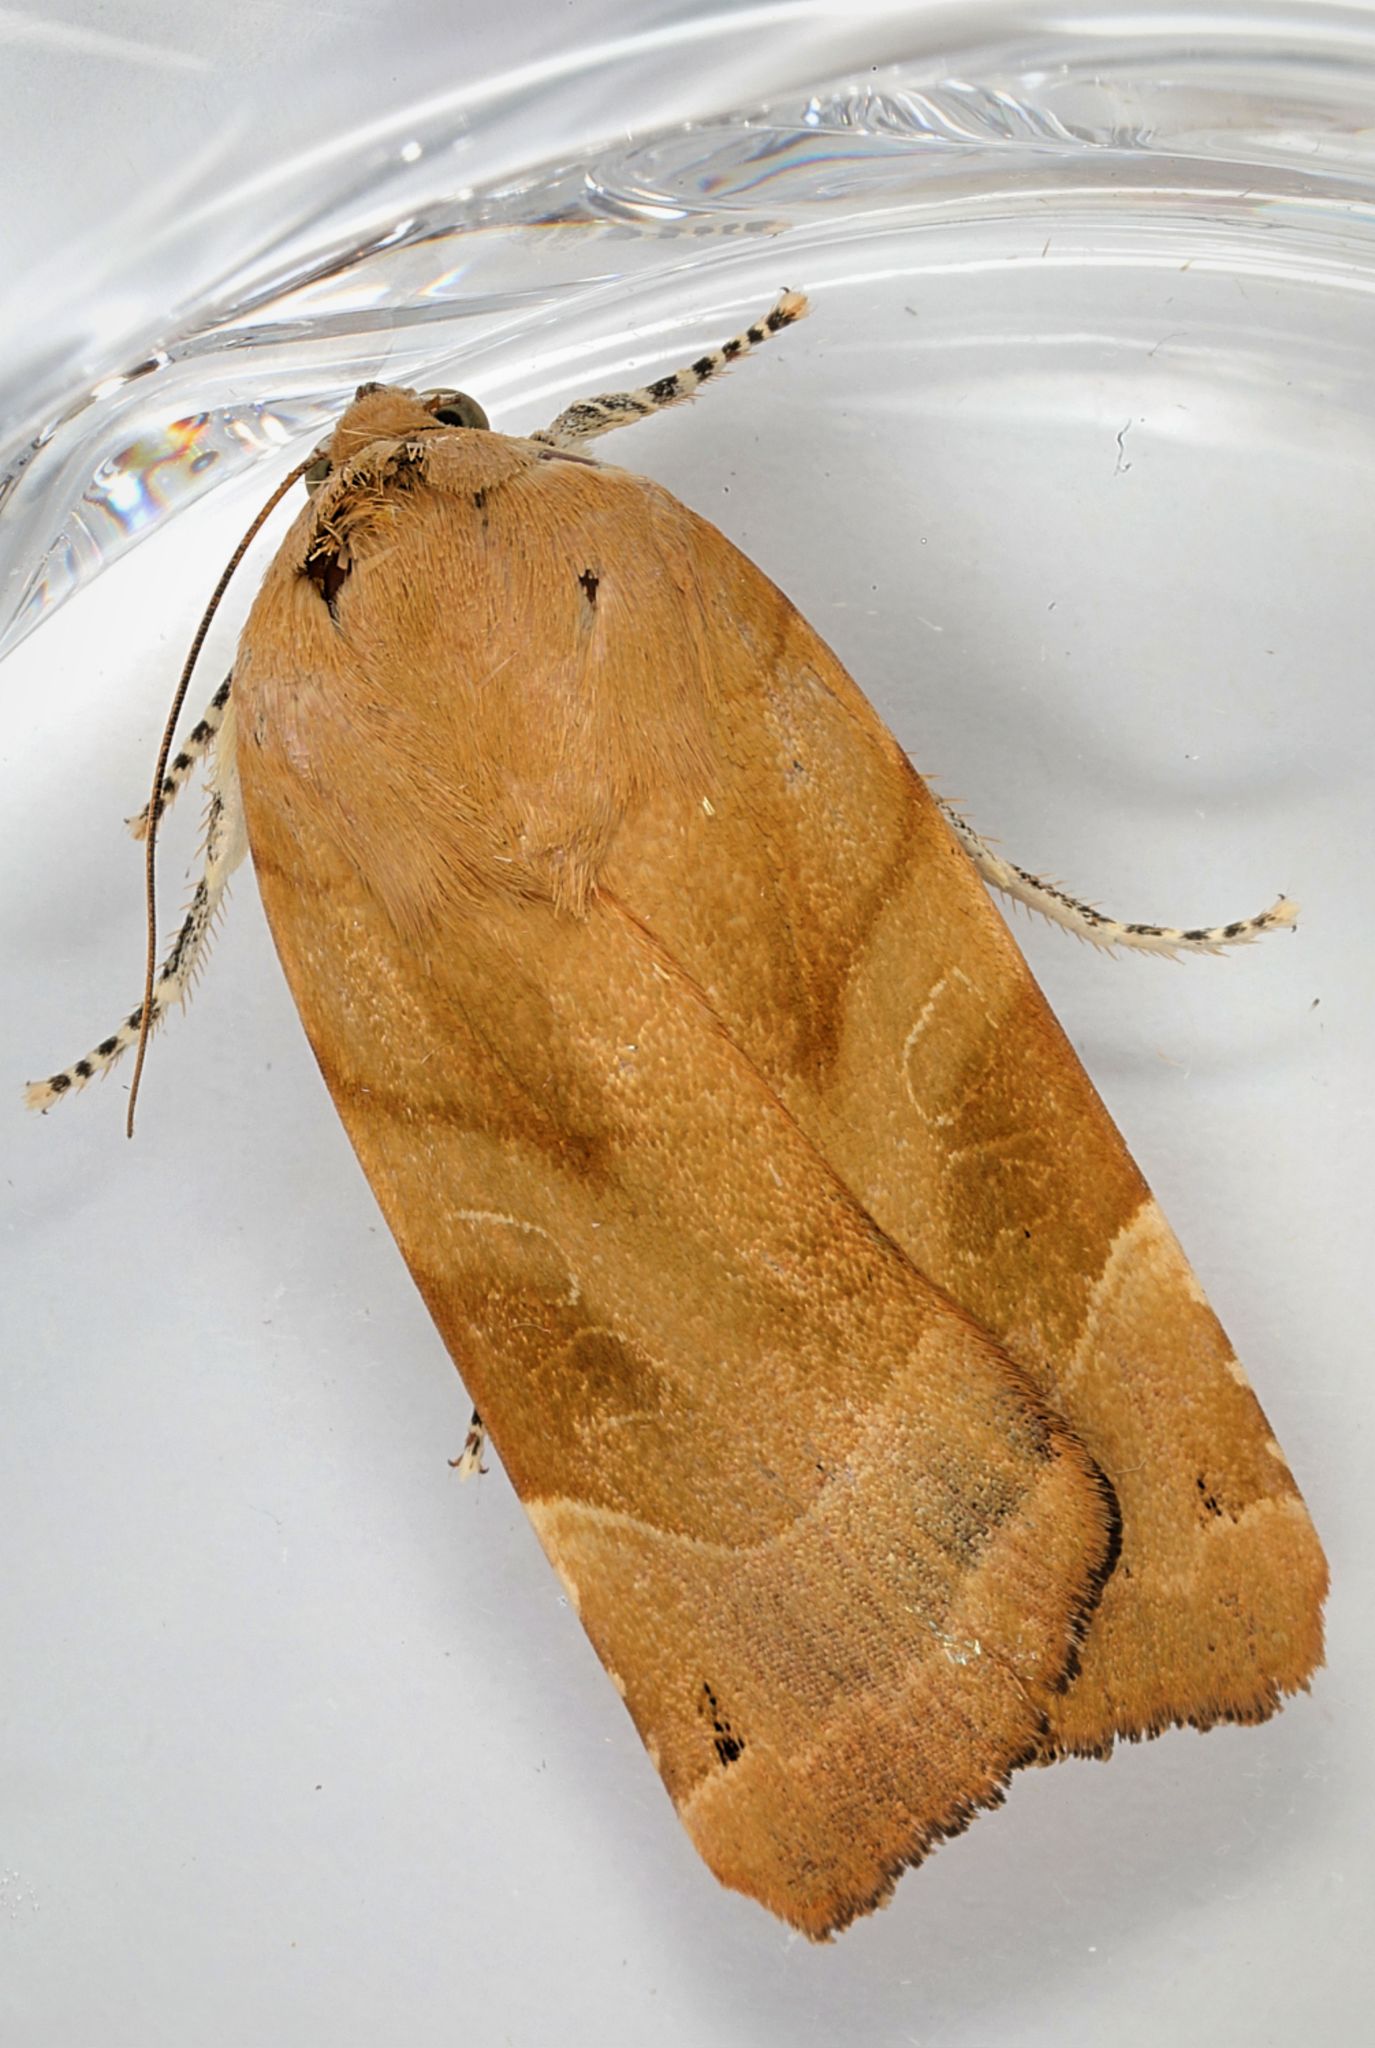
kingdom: Animalia
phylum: Arthropoda
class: Insecta
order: Lepidoptera
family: Noctuidae
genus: Noctua
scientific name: Noctua fimbriata
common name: Broad-bordered yellow underwing
